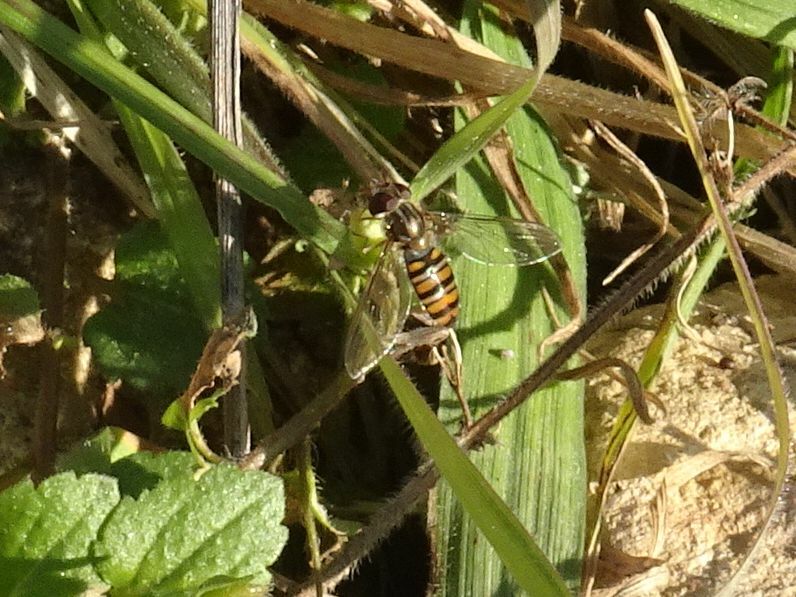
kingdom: Animalia
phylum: Arthropoda
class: Insecta
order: Diptera
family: Syrphidae
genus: Episyrphus
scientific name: Episyrphus balteatus
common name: Marmalade hoverfly
